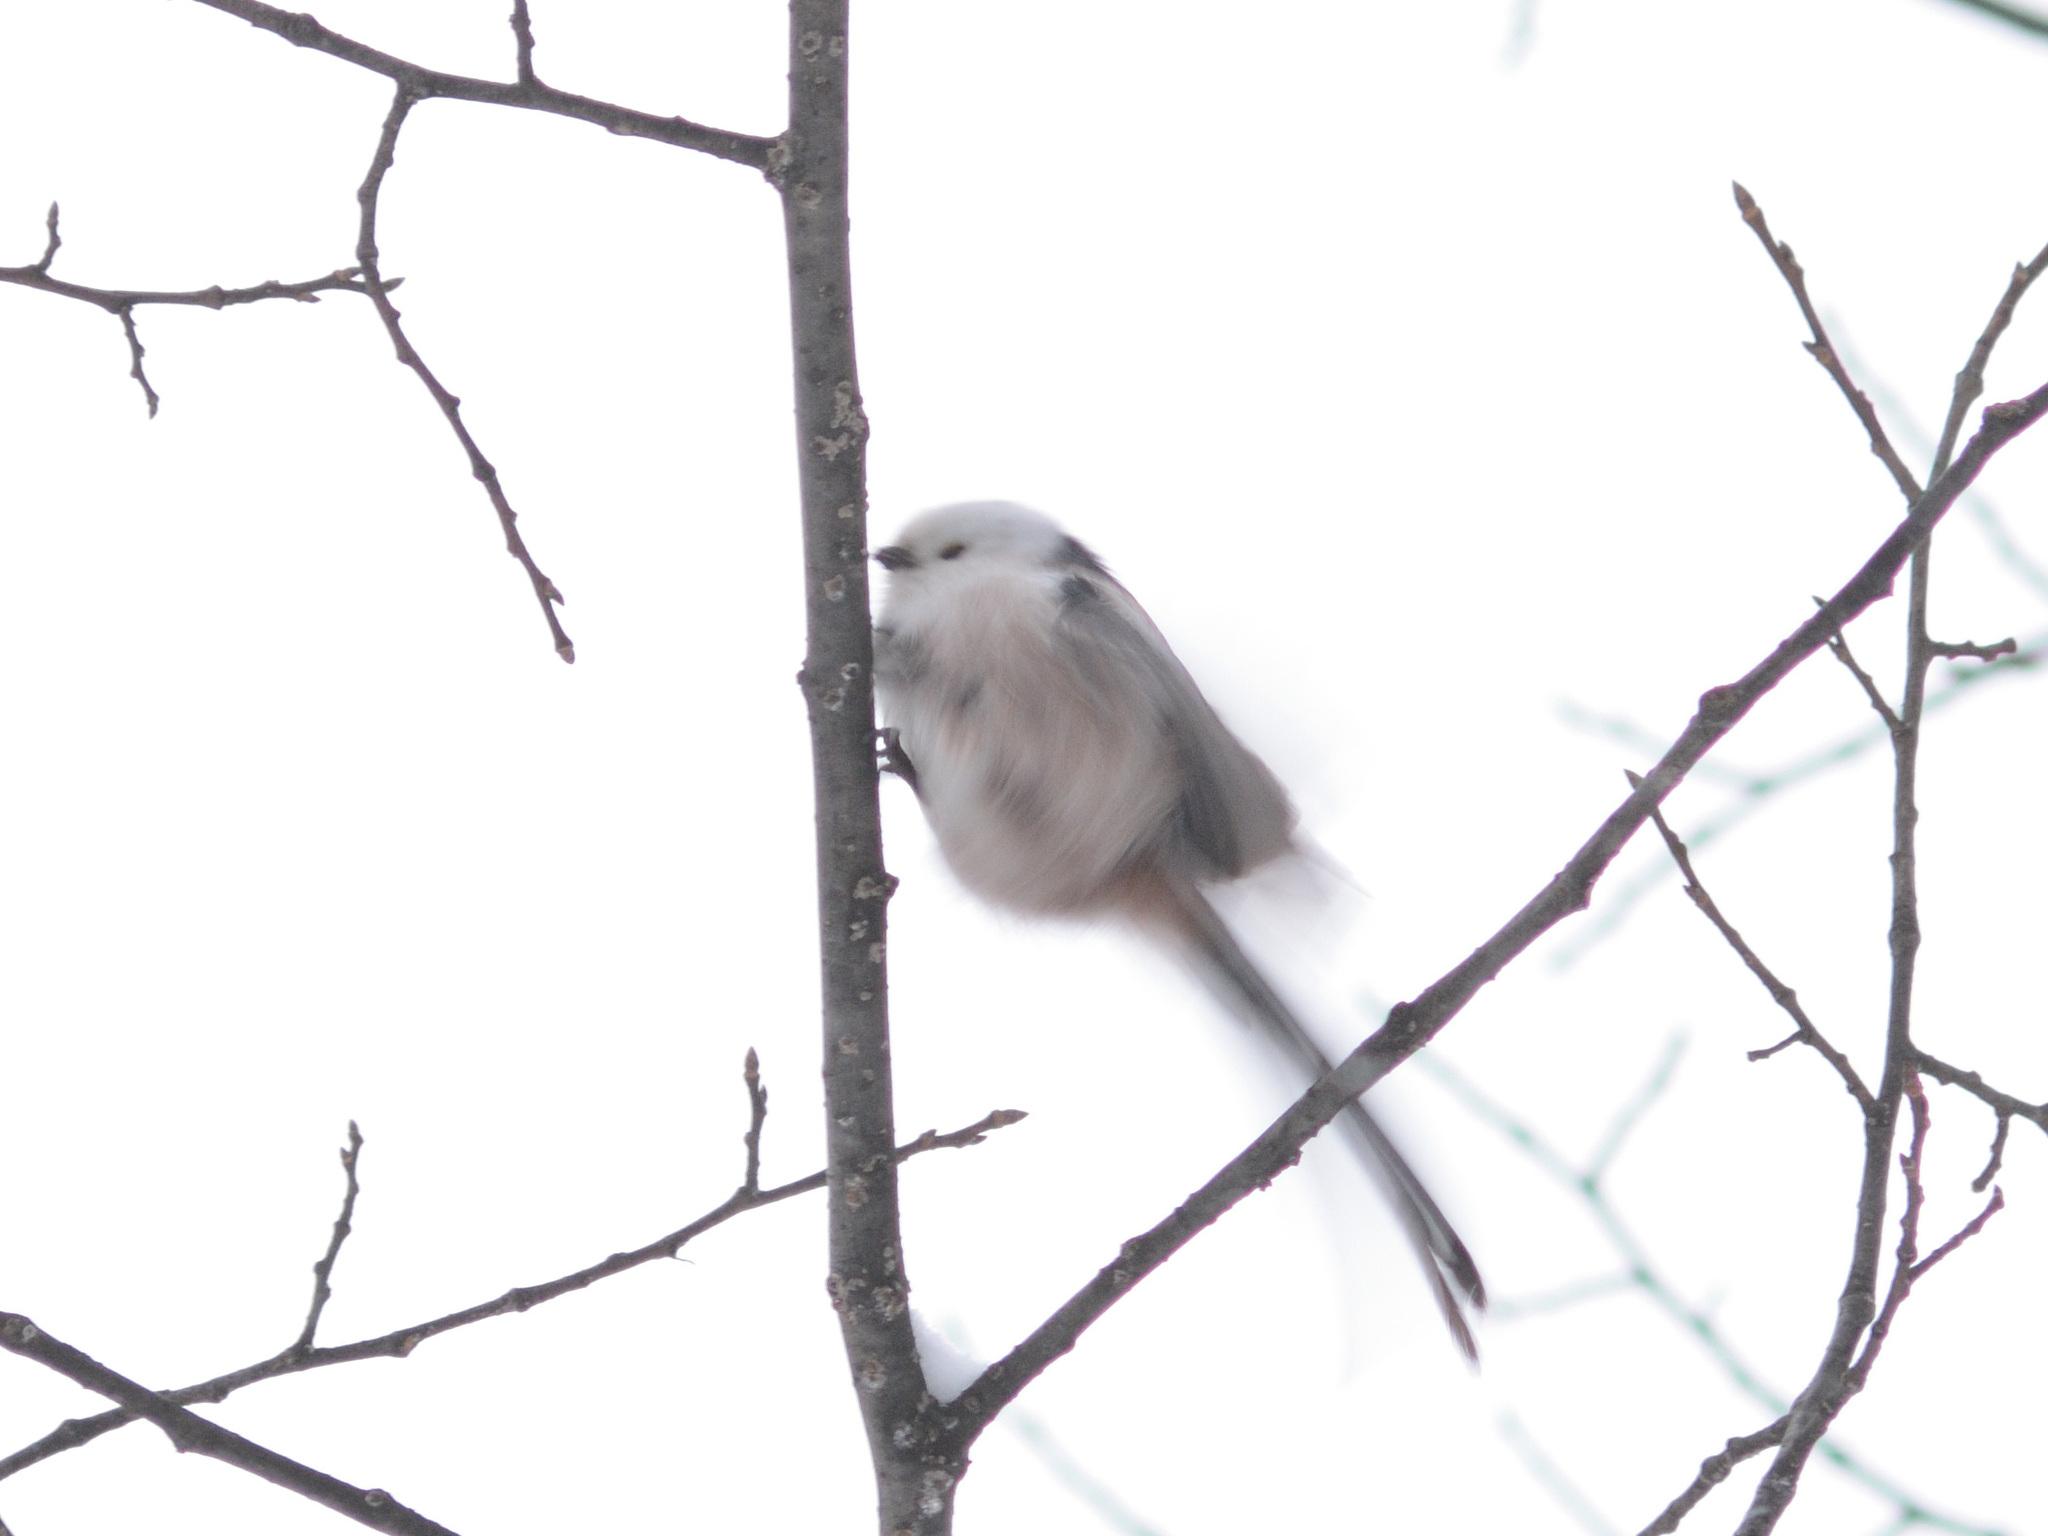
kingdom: Animalia
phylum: Chordata
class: Aves
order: Passeriformes
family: Aegithalidae
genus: Aegithalos
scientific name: Aegithalos caudatus
